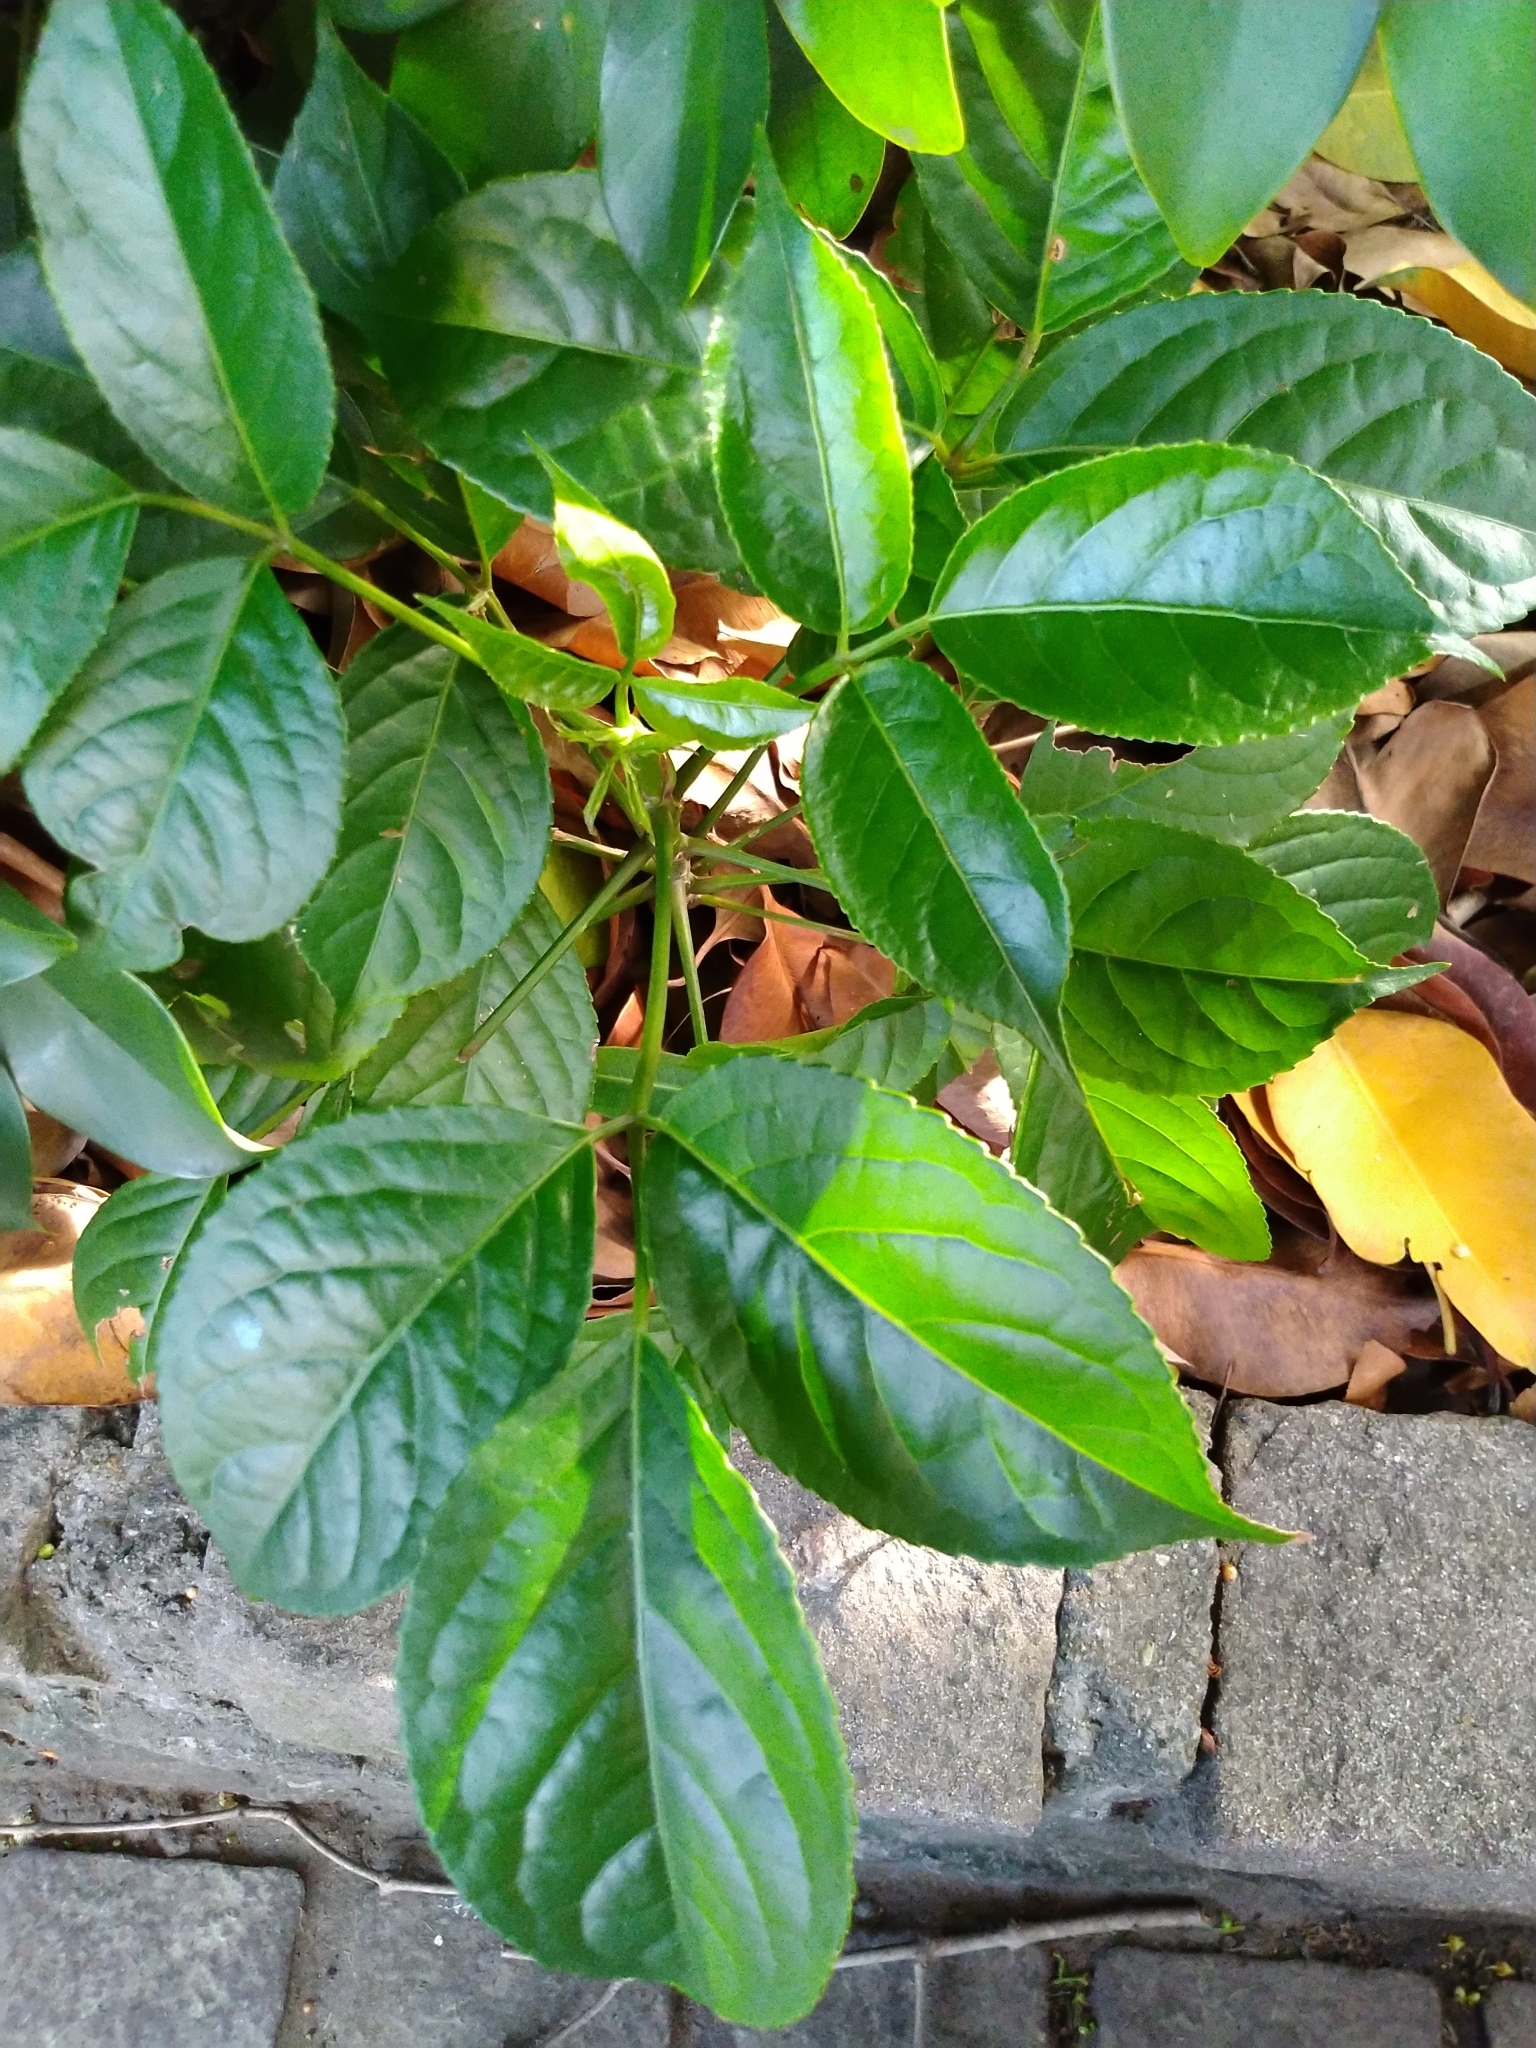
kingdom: Plantae
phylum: Tracheophyta
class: Magnoliopsida
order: Malpighiales
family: Phyllanthaceae
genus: Bischofia
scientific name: Bischofia javanica
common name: Javanese bishopwood
